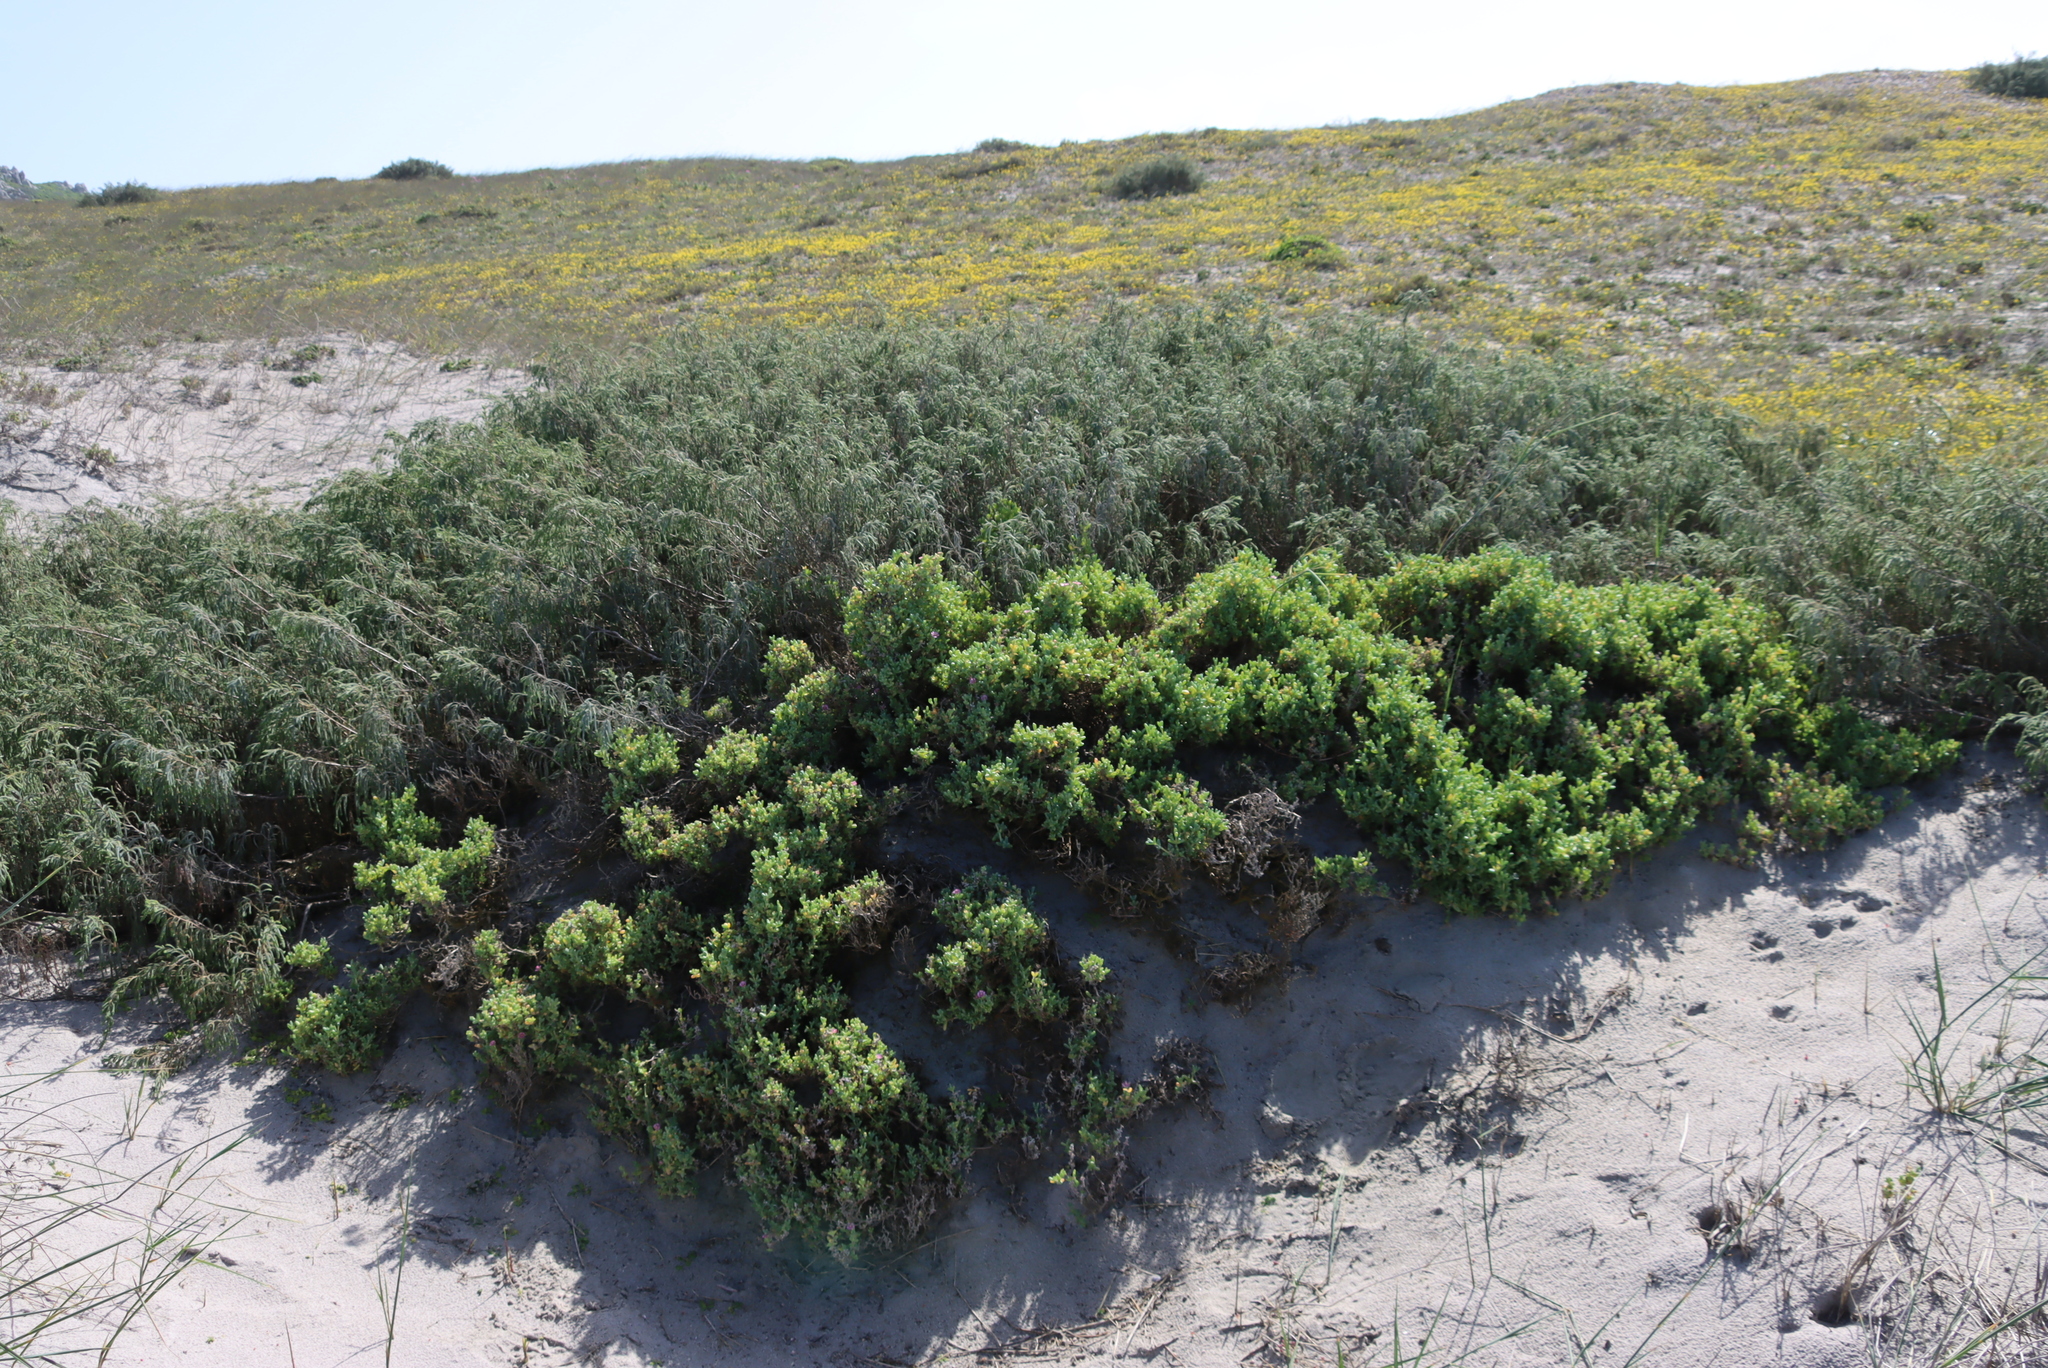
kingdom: Plantae
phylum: Tracheophyta
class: Magnoliopsida
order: Malvales
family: Thymelaeaceae
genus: Passerina
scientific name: Passerina ericoides
